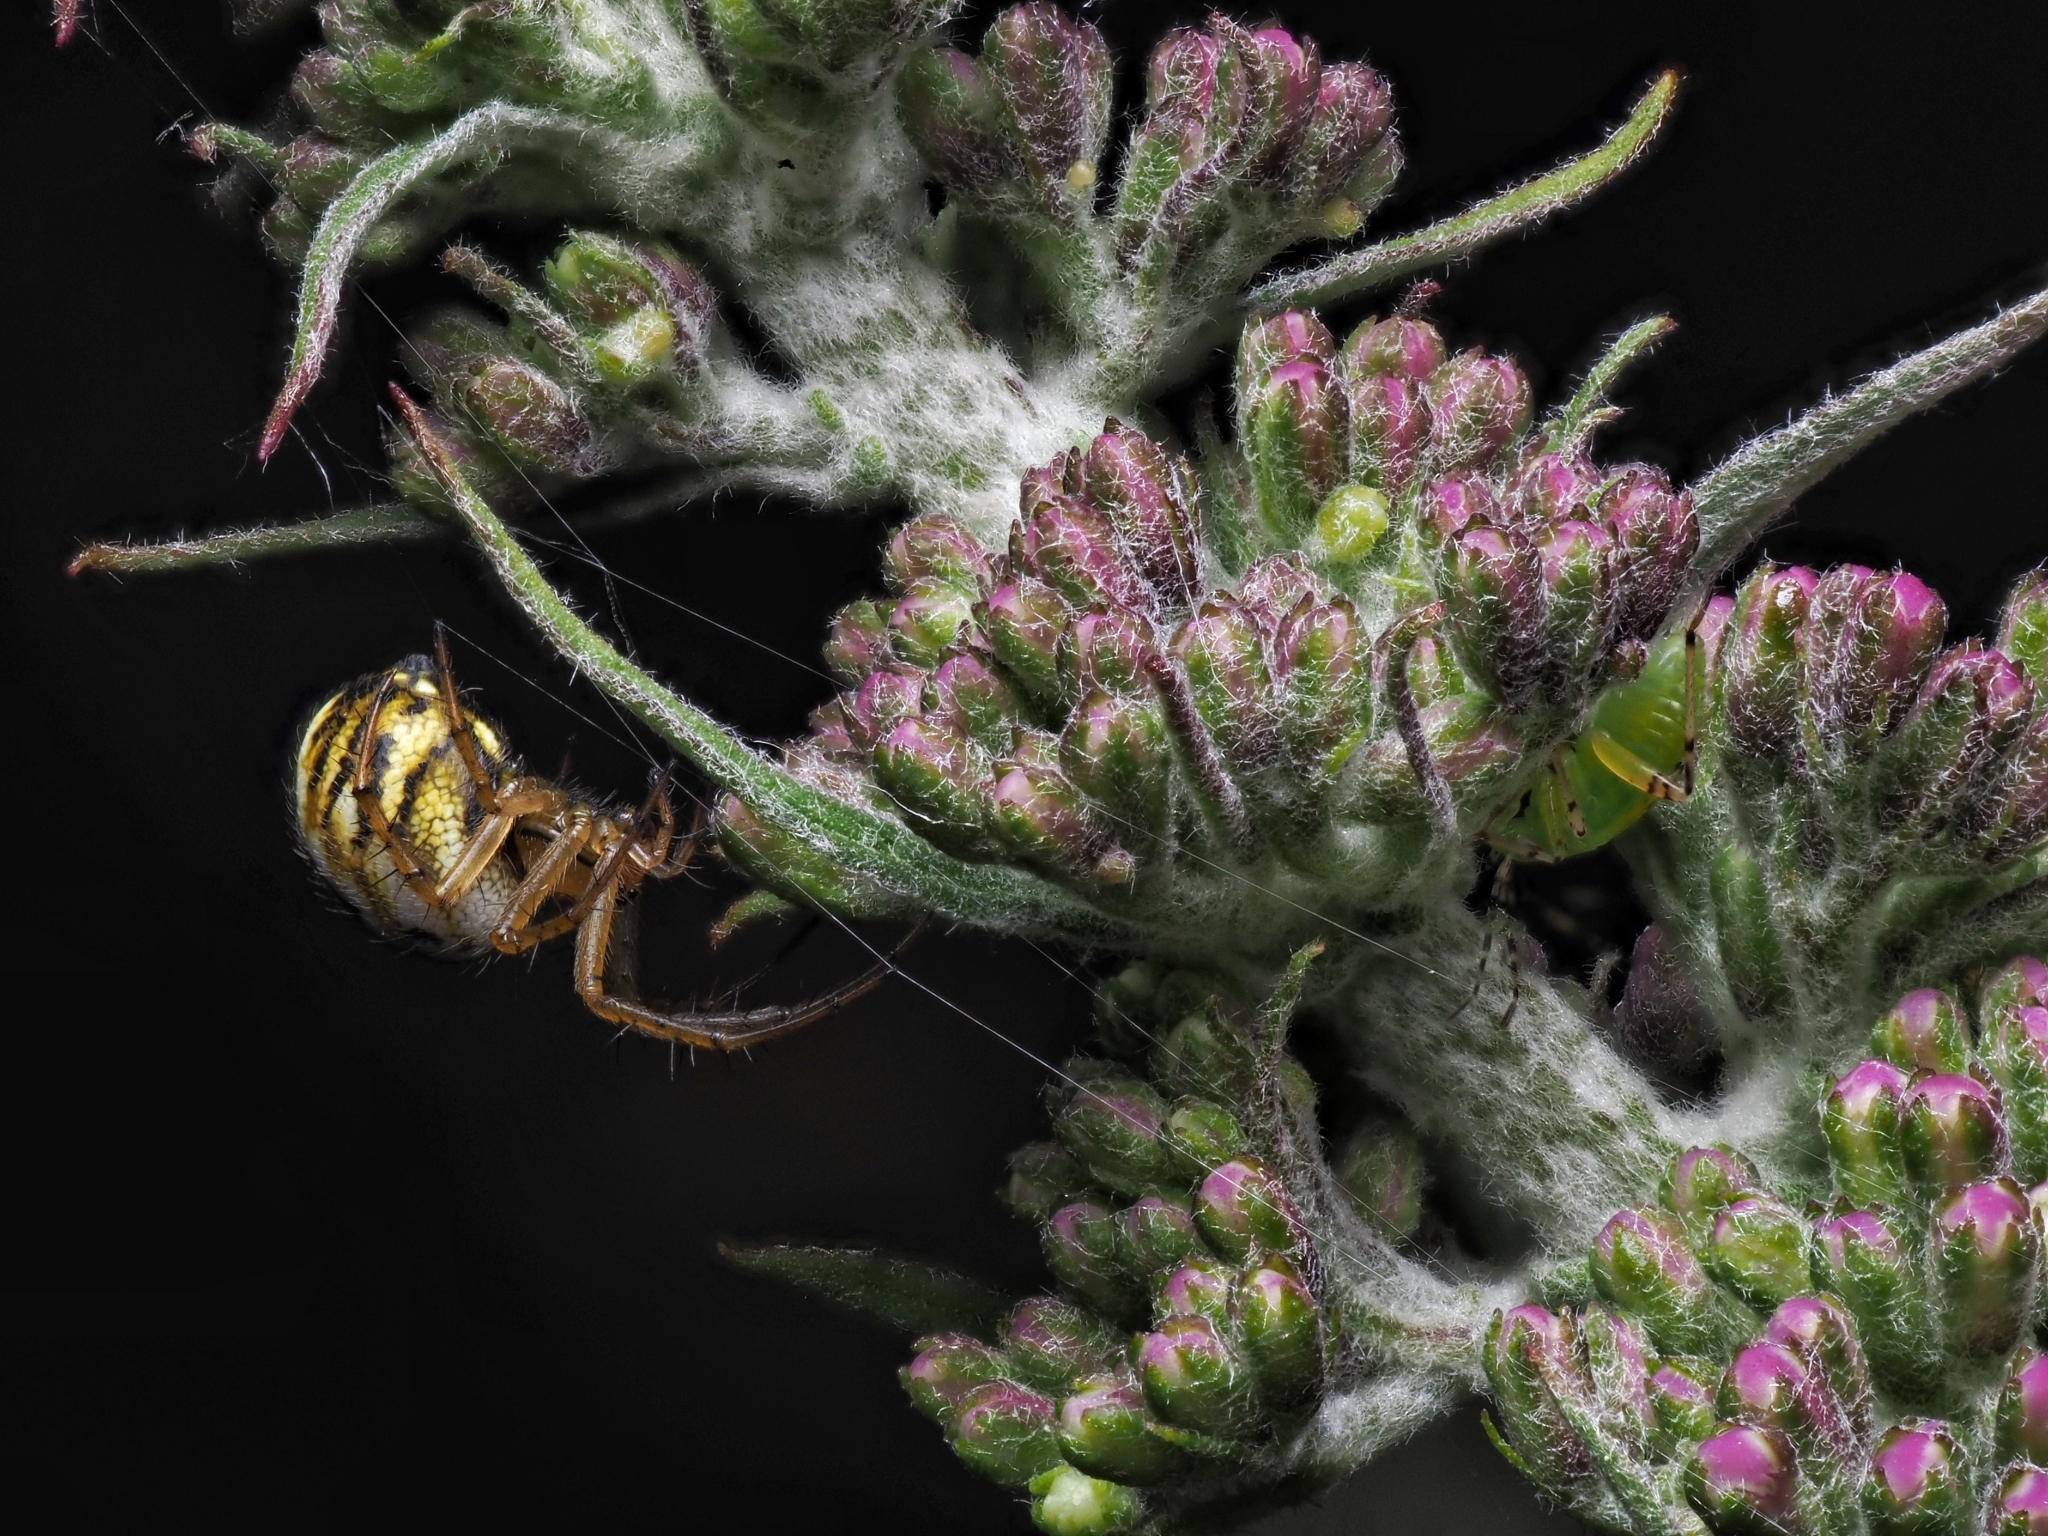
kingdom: Animalia
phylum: Arthropoda
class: Arachnida
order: Araneae
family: Araneidae
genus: Mangora
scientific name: Mangora acalypha
